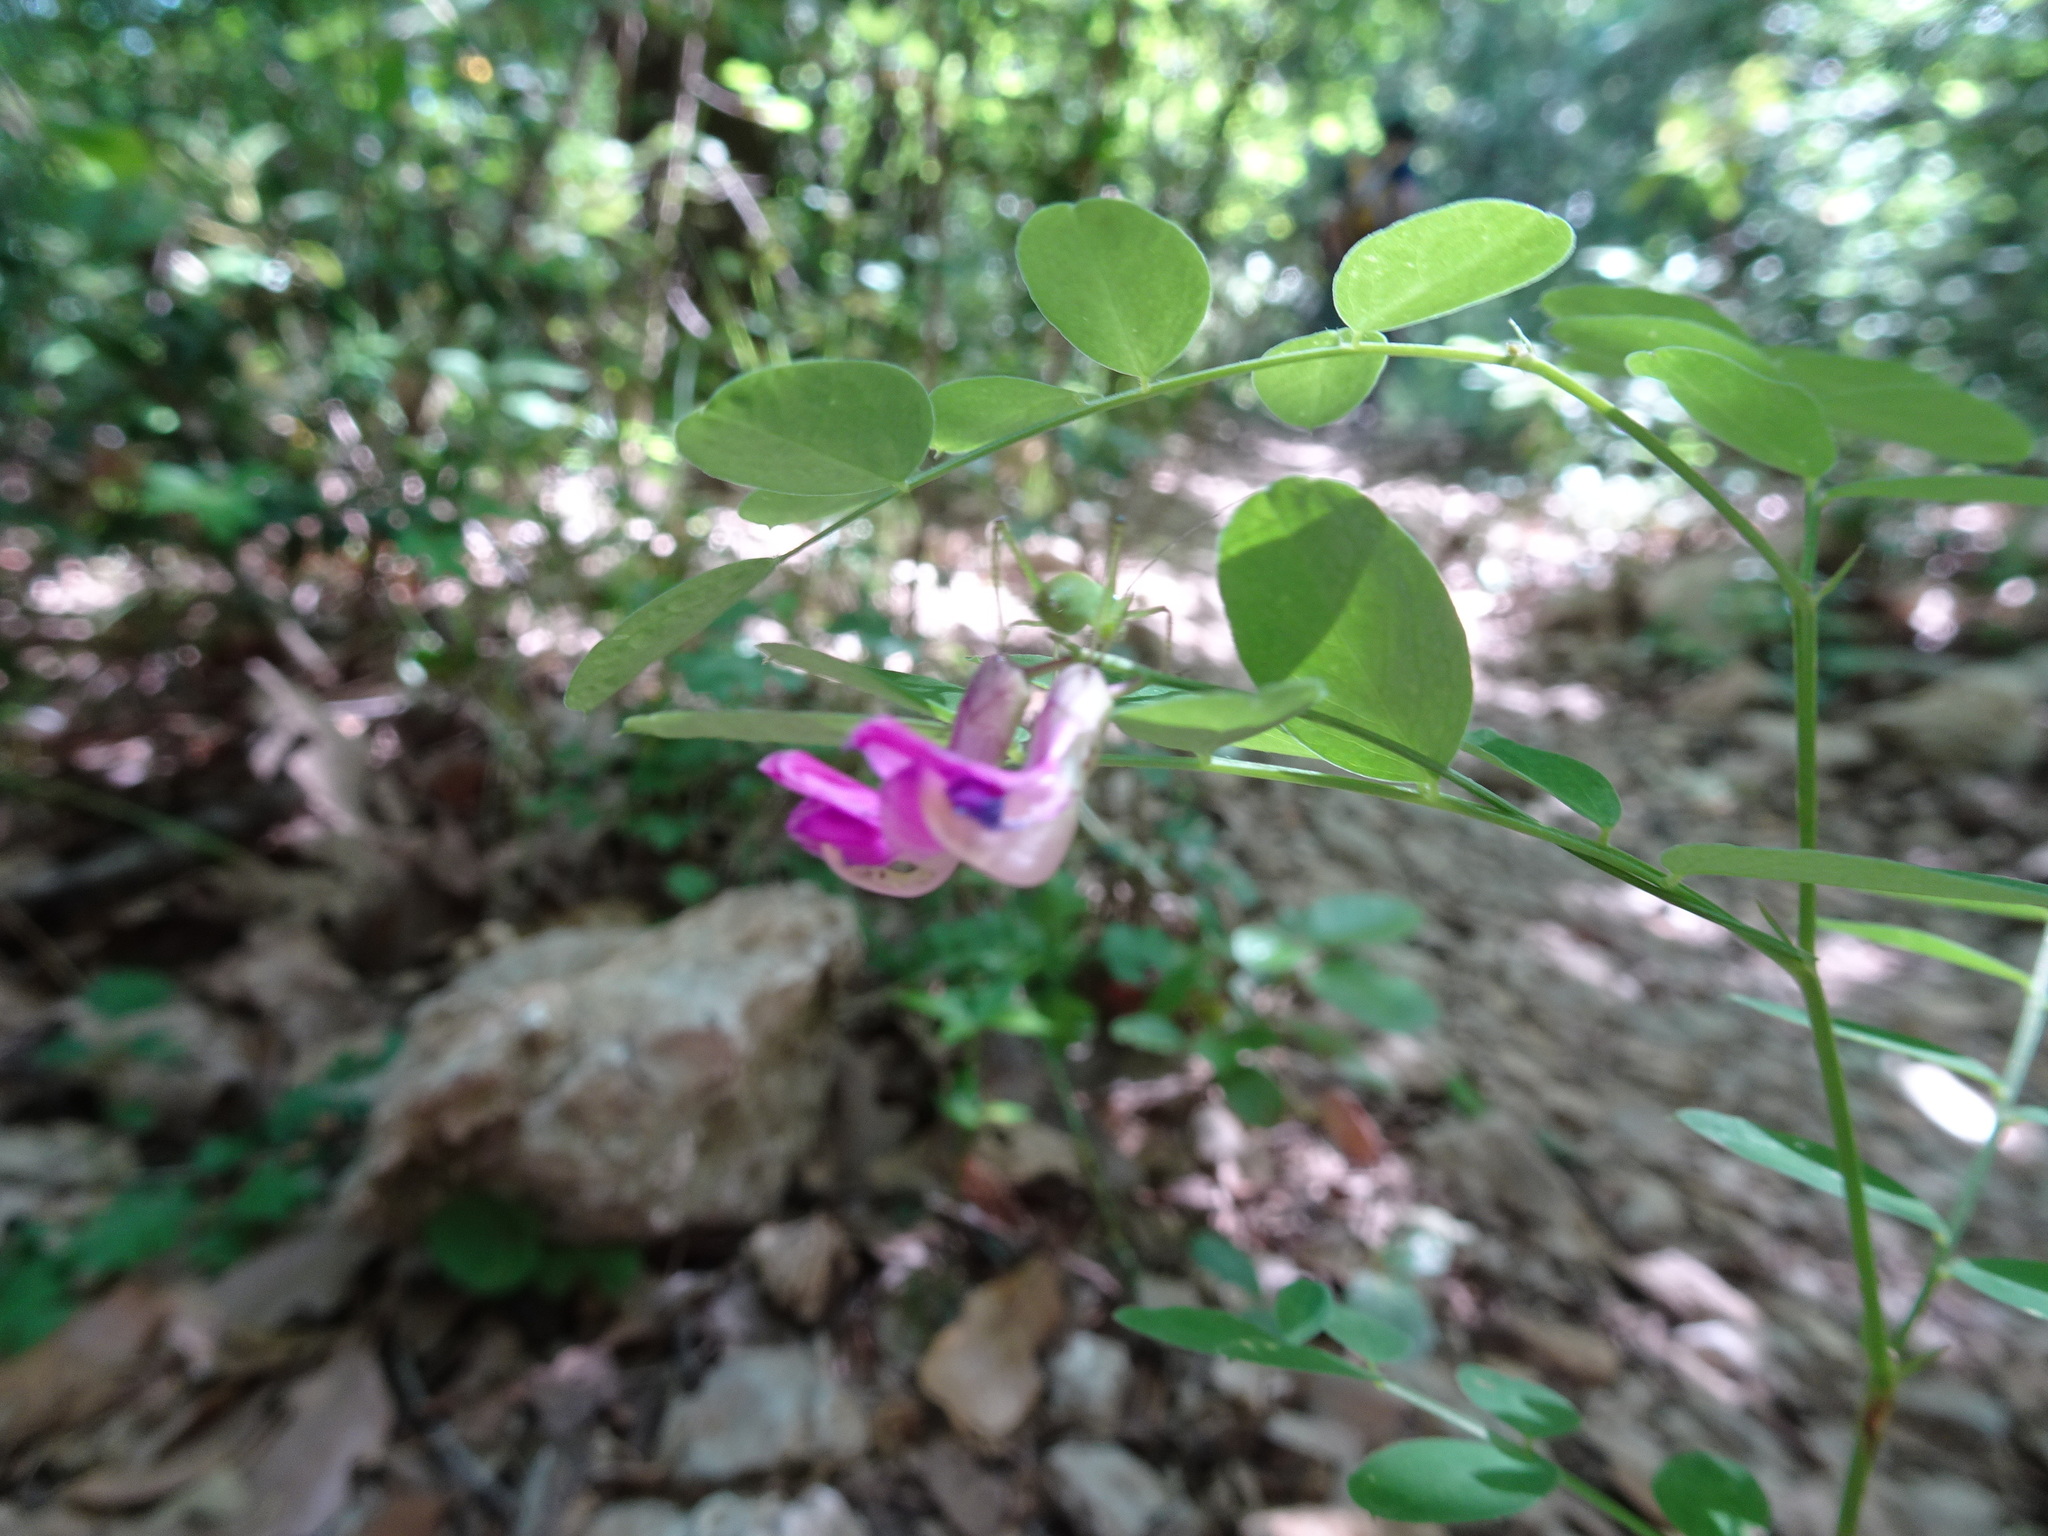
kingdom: Plantae
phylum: Tracheophyta
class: Magnoliopsida
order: Fabales
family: Fabaceae
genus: Lathyrus
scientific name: Lathyrus niger
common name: Black pea
